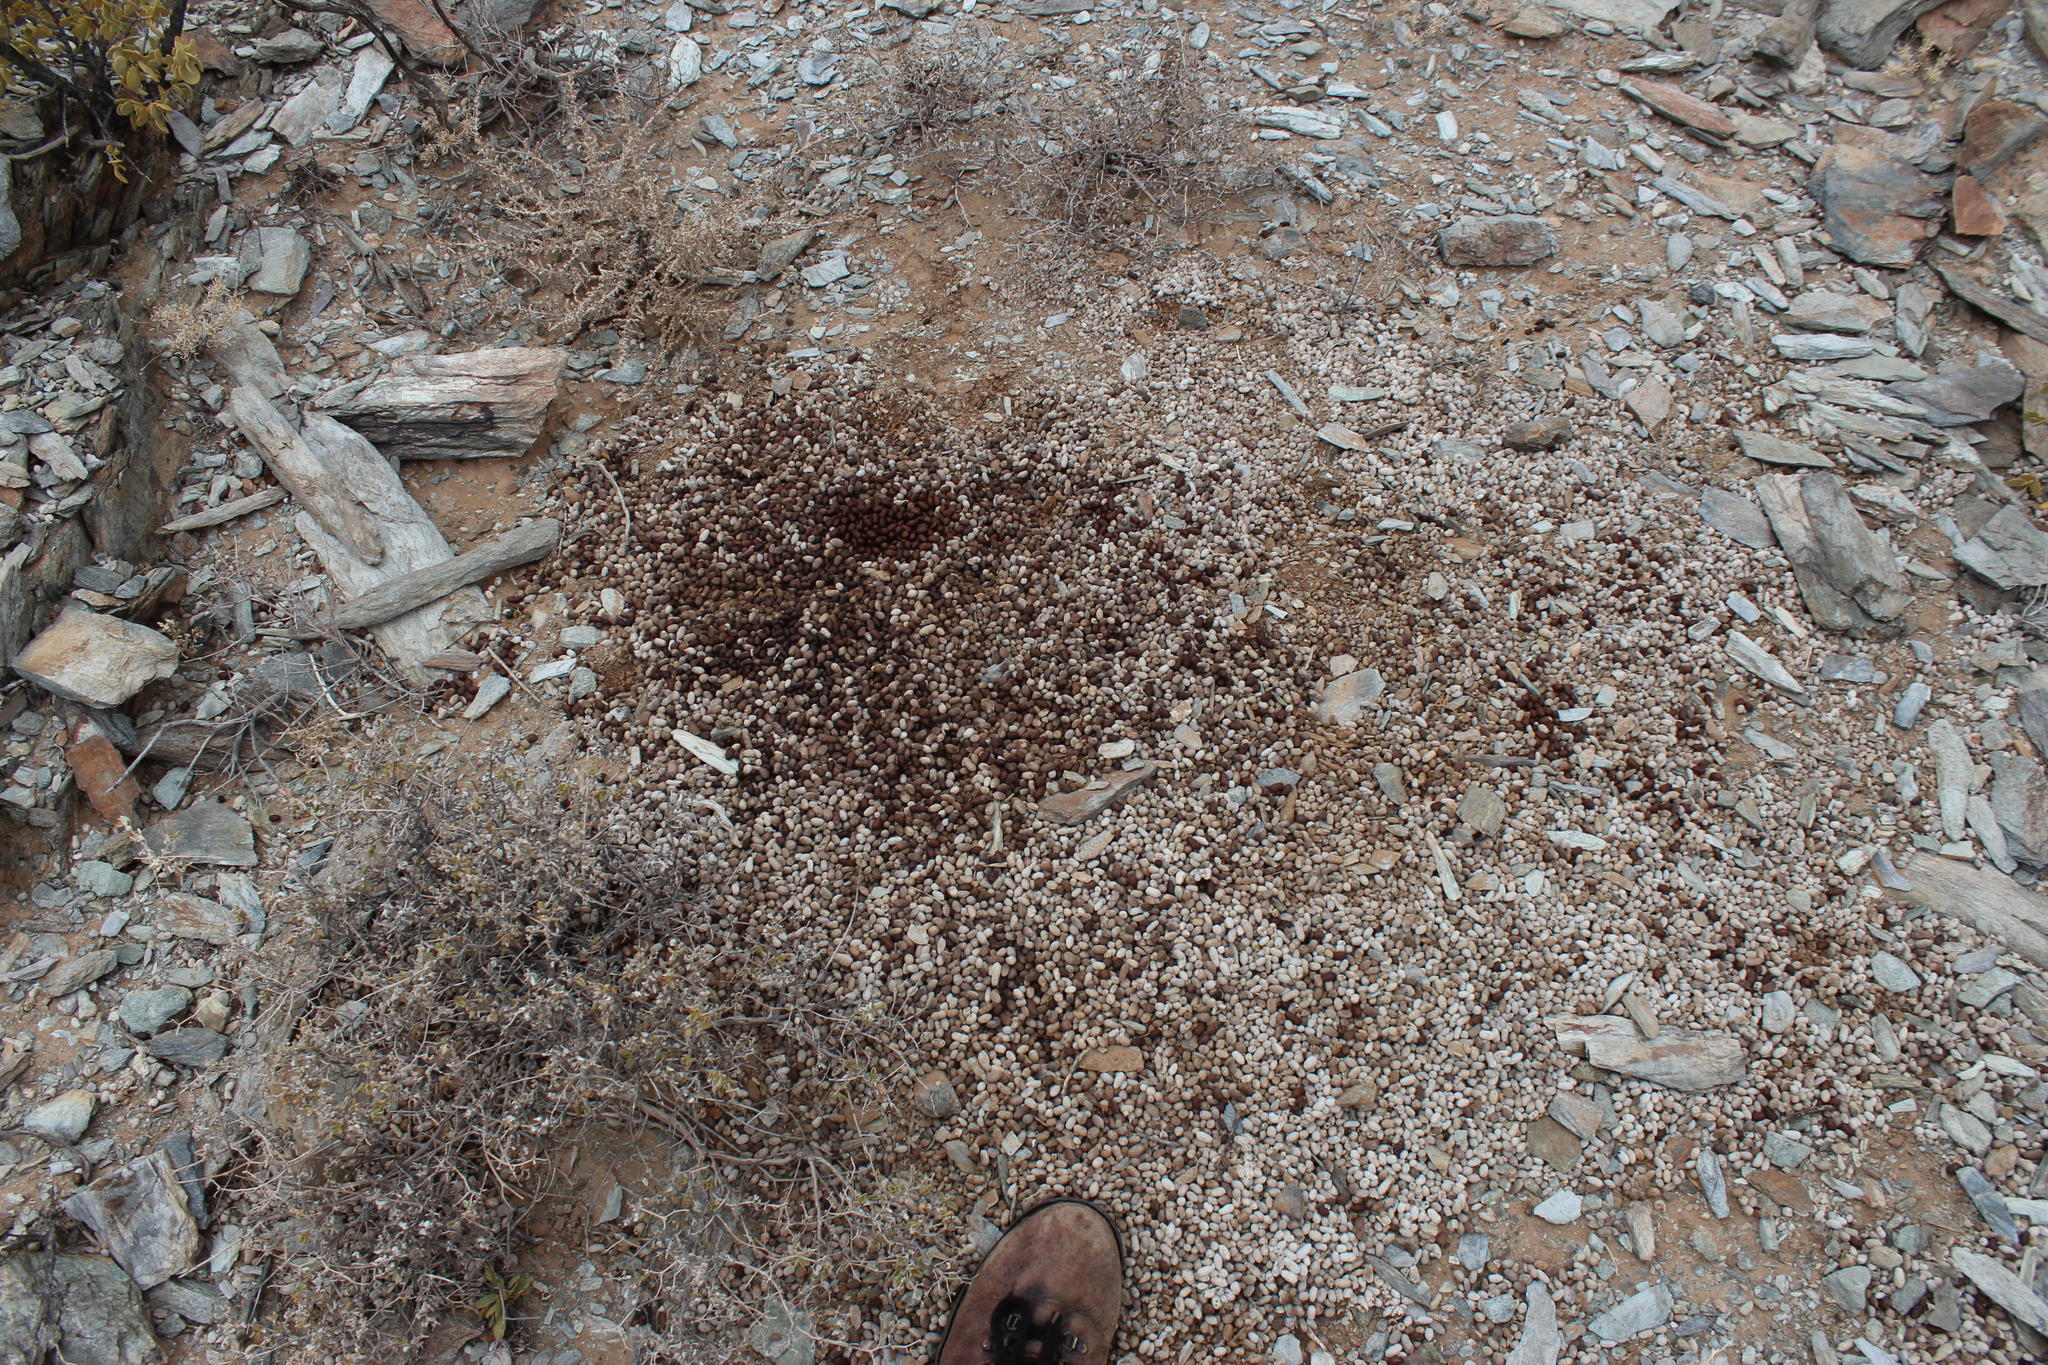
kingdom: Animalia
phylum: Chordata
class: Mammalia
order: Artiodactyla
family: Bovidae
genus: Oreotragus
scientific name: Oreotragus oreotragus
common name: Klipspringer
